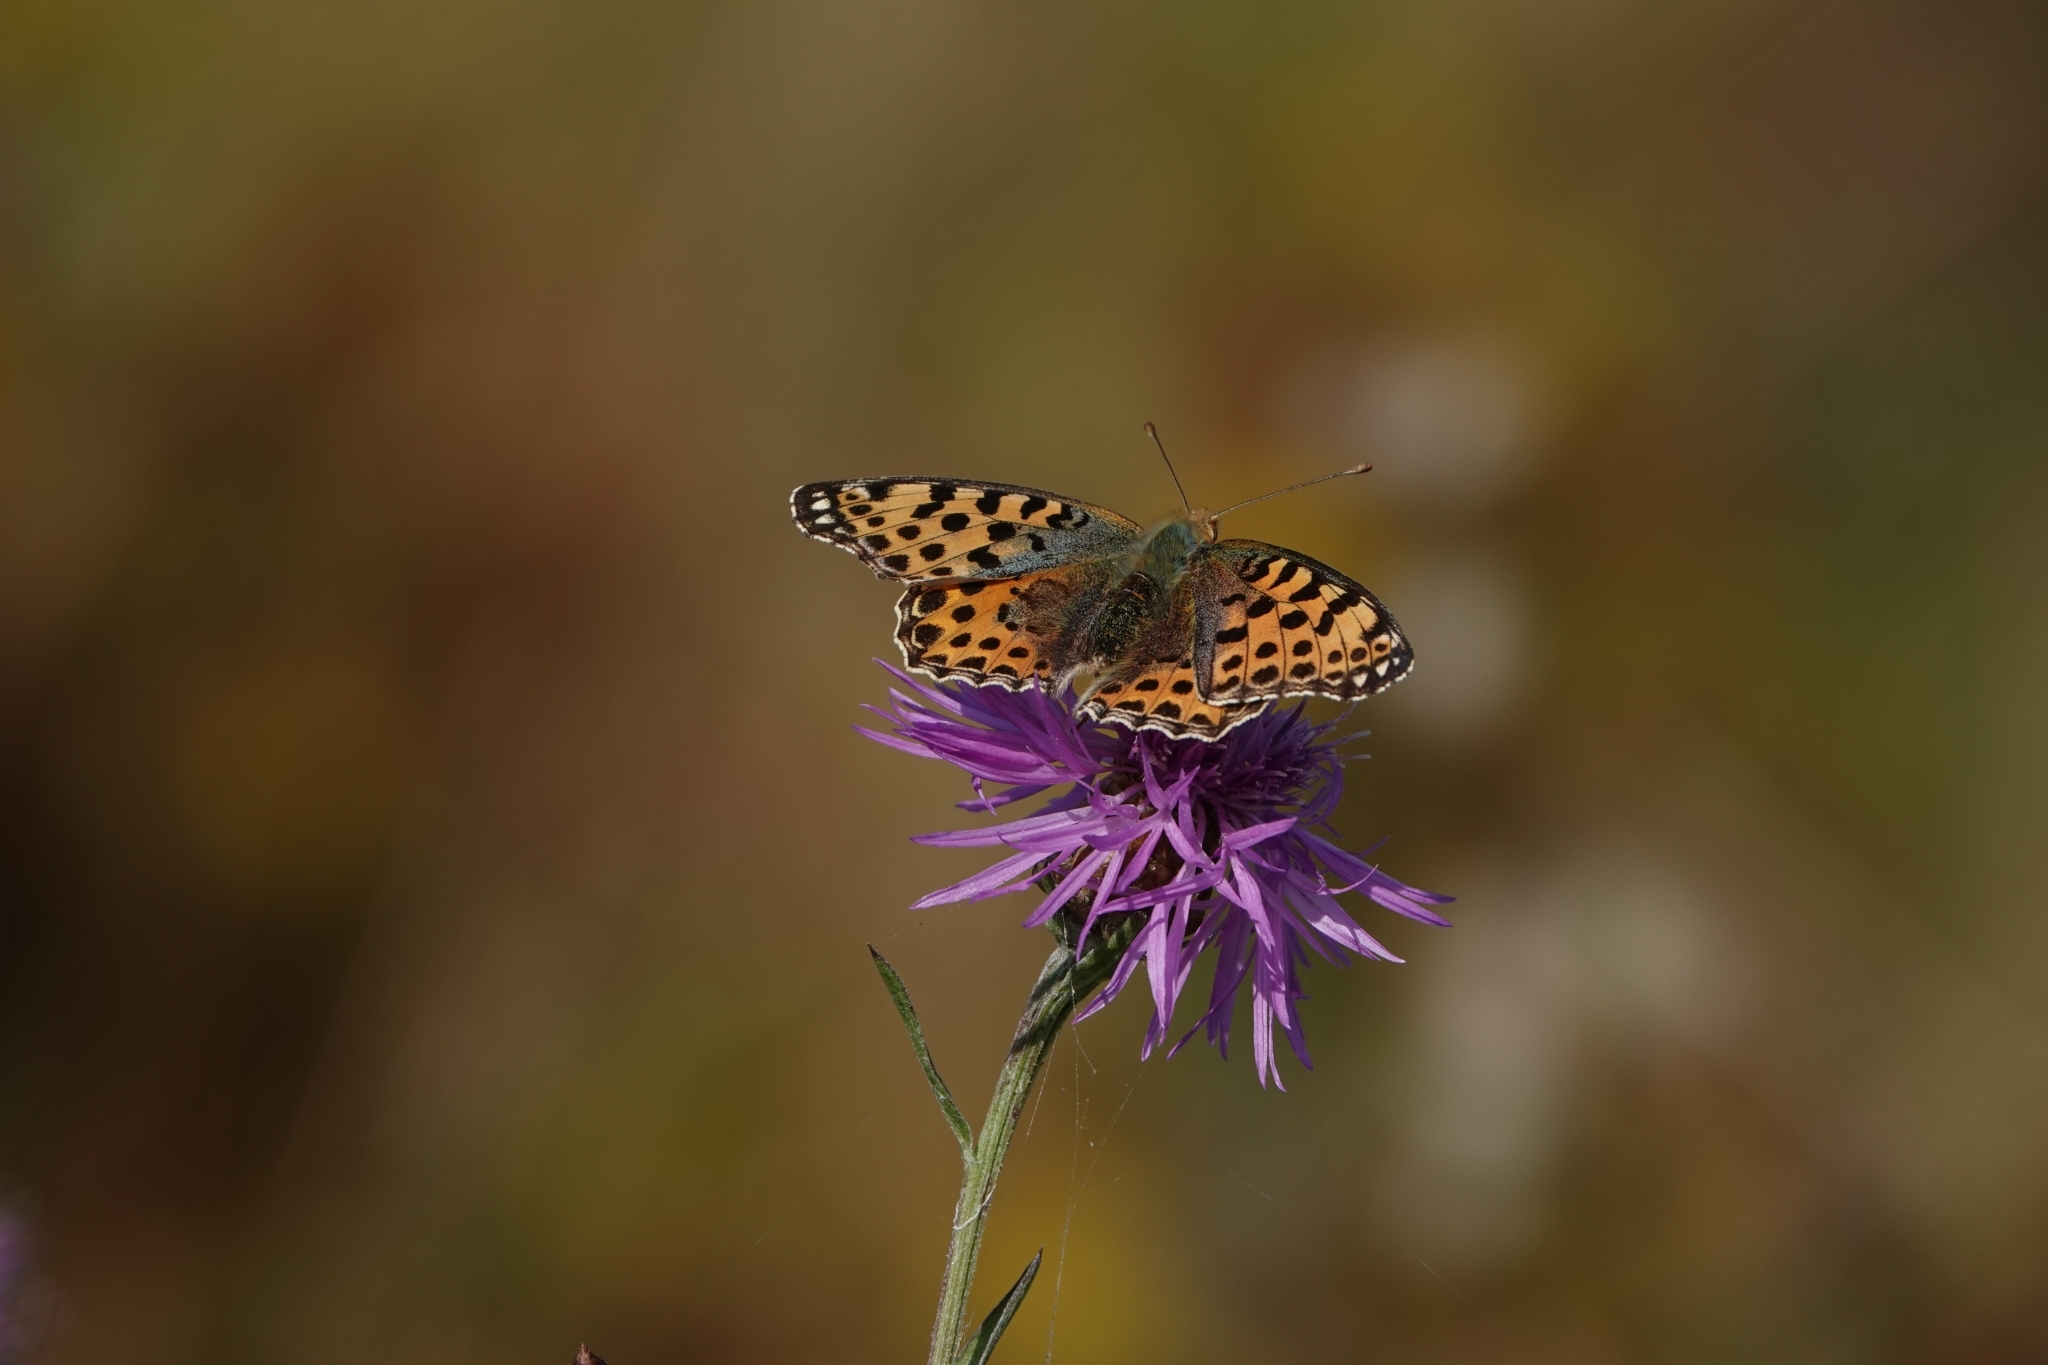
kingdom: Animalia
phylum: Arthropoda
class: Insecta
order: Lepidoptera
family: Nymphalidae
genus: Issoria
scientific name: Issoria lathonia
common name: Queen of spain fritillary
